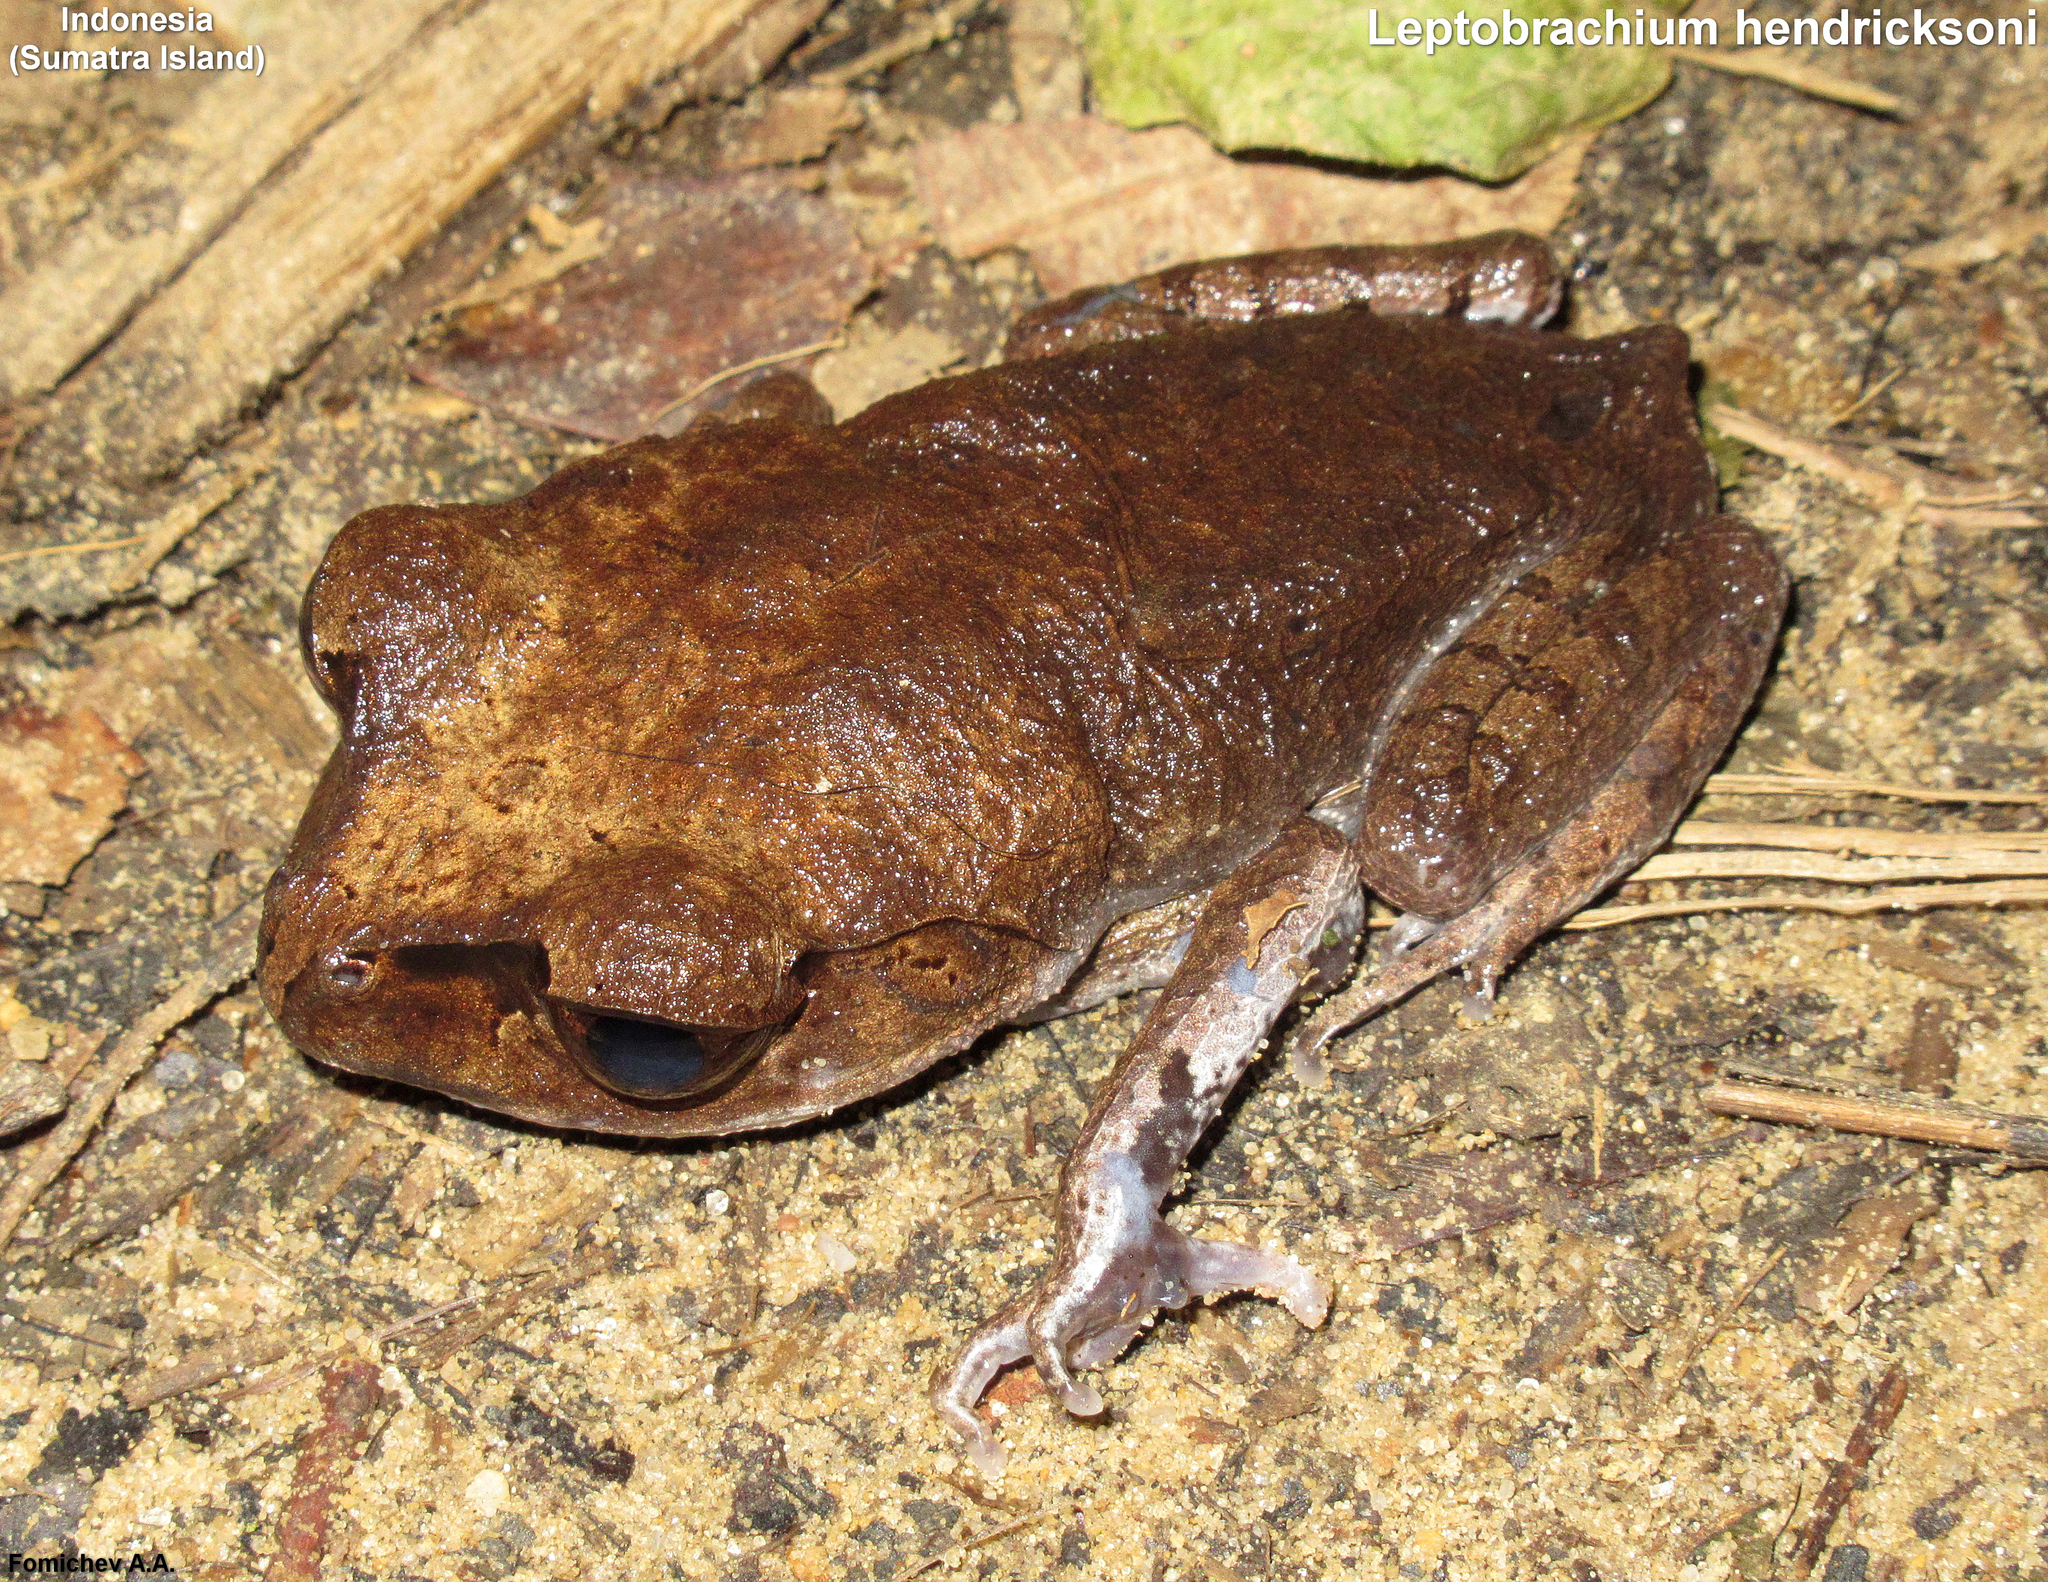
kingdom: Animalia
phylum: Chordata
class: Amphibia
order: Anura
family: Megophryidae
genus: Leptobrachium
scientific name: Leptobrachium hendricksoni
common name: Spotted litter frog
